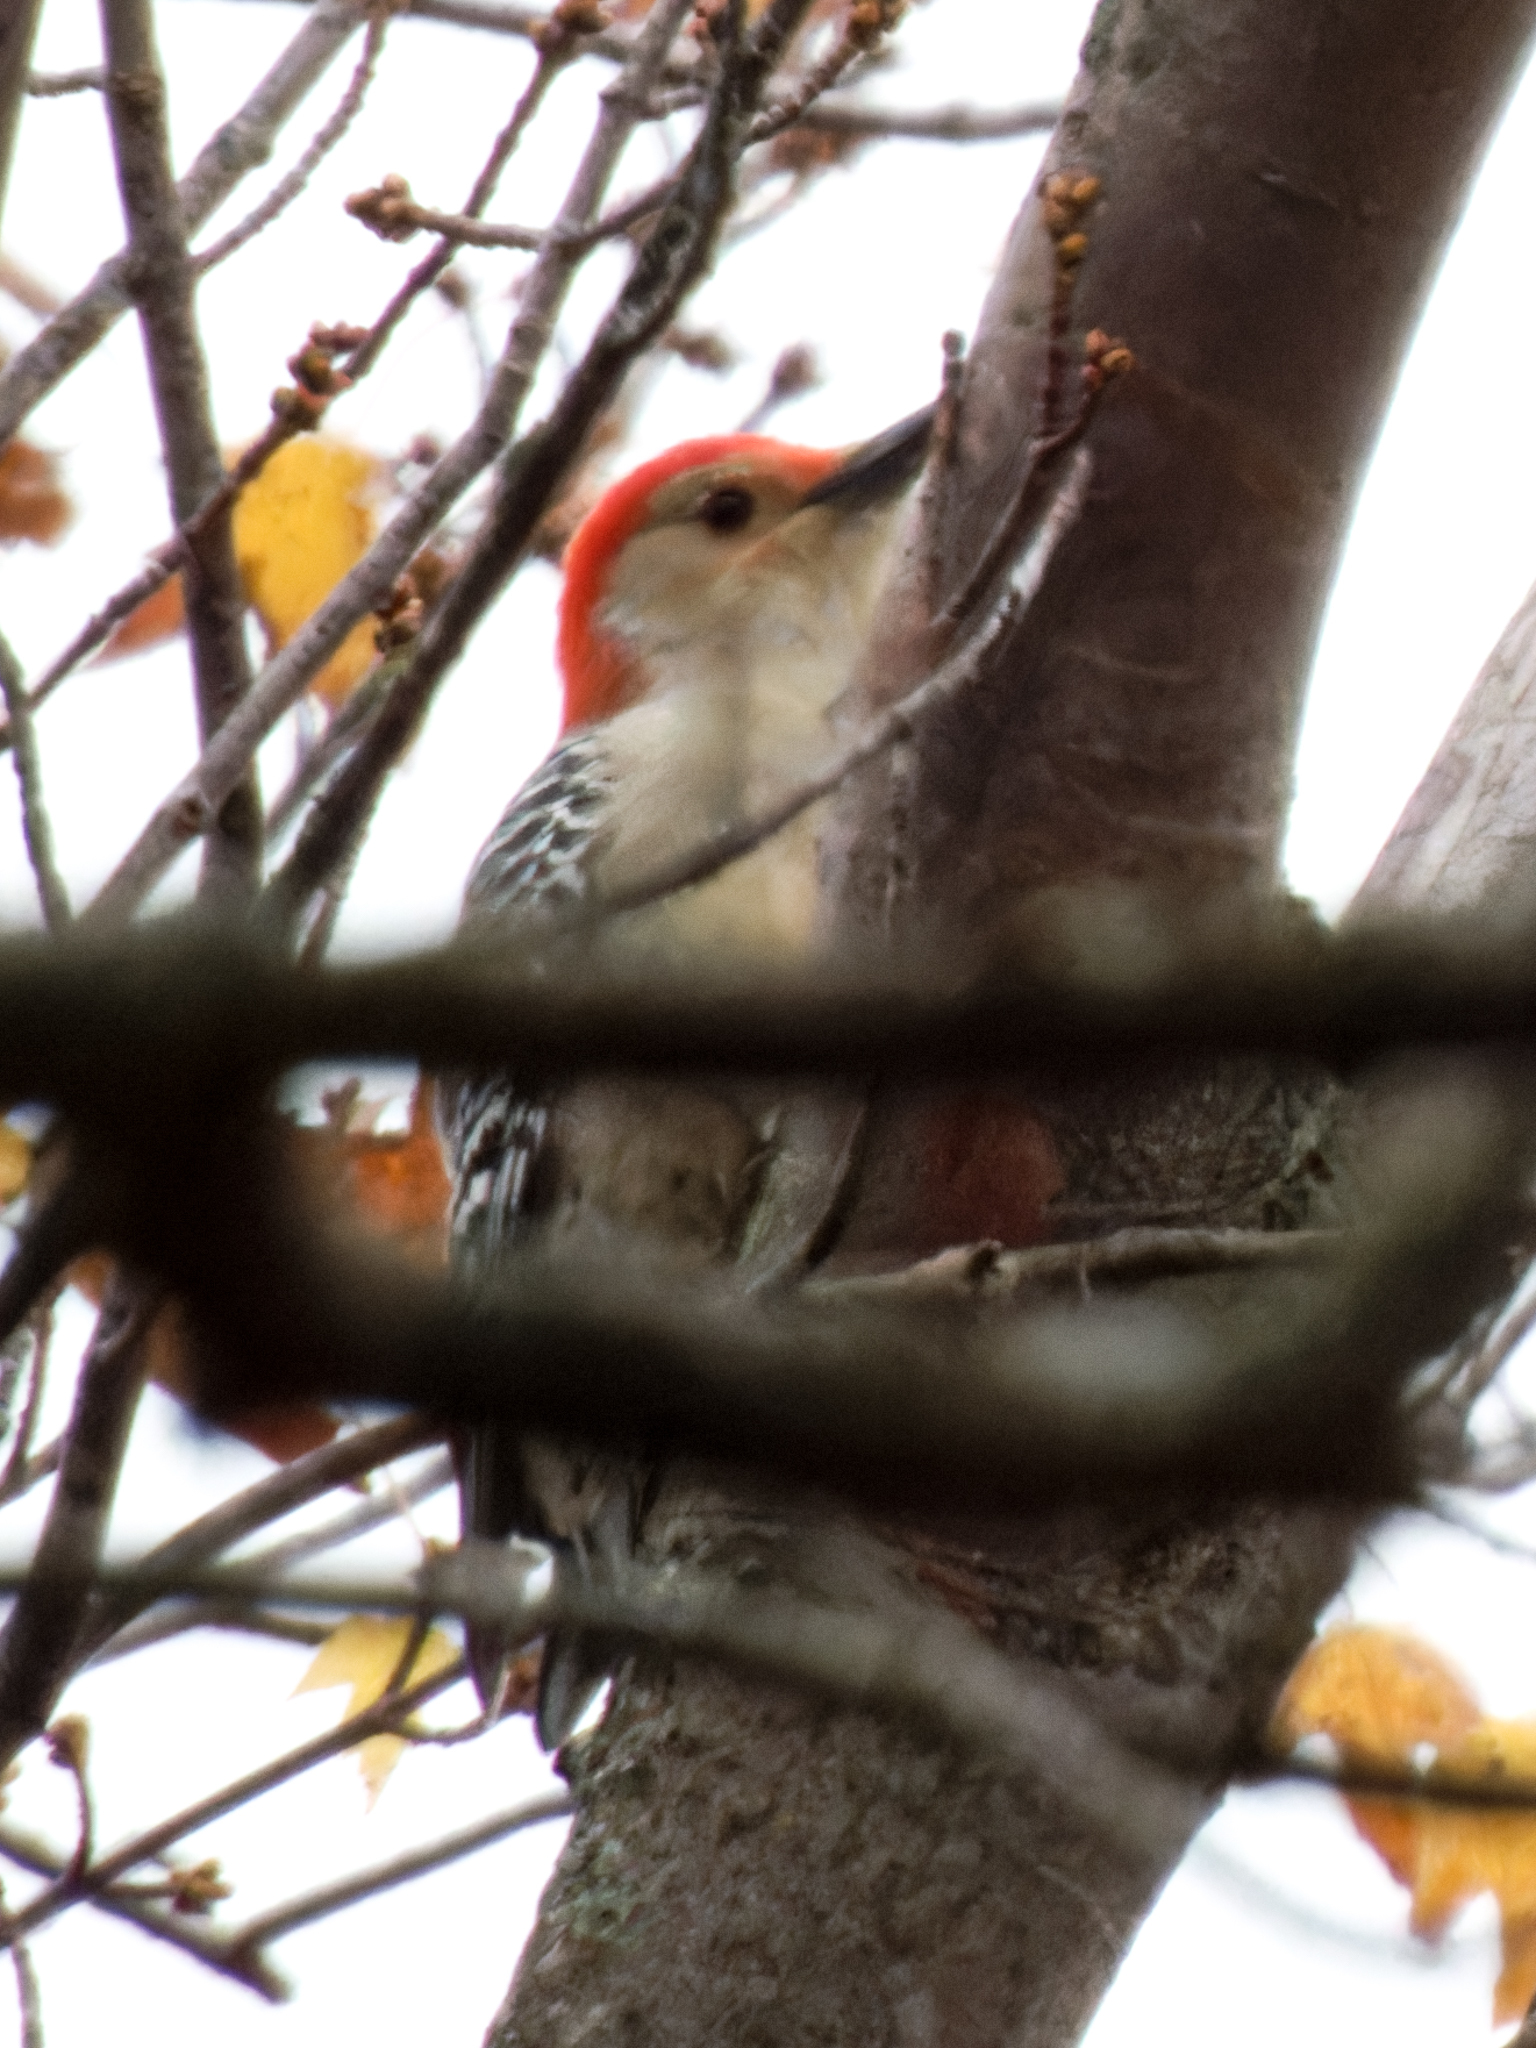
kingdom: Animalia
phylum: Chordata
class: Aves
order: Piciformes
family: Picidae
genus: Melanerpes
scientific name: Melanerpes carolinus
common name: Red-bellied woodpecker
